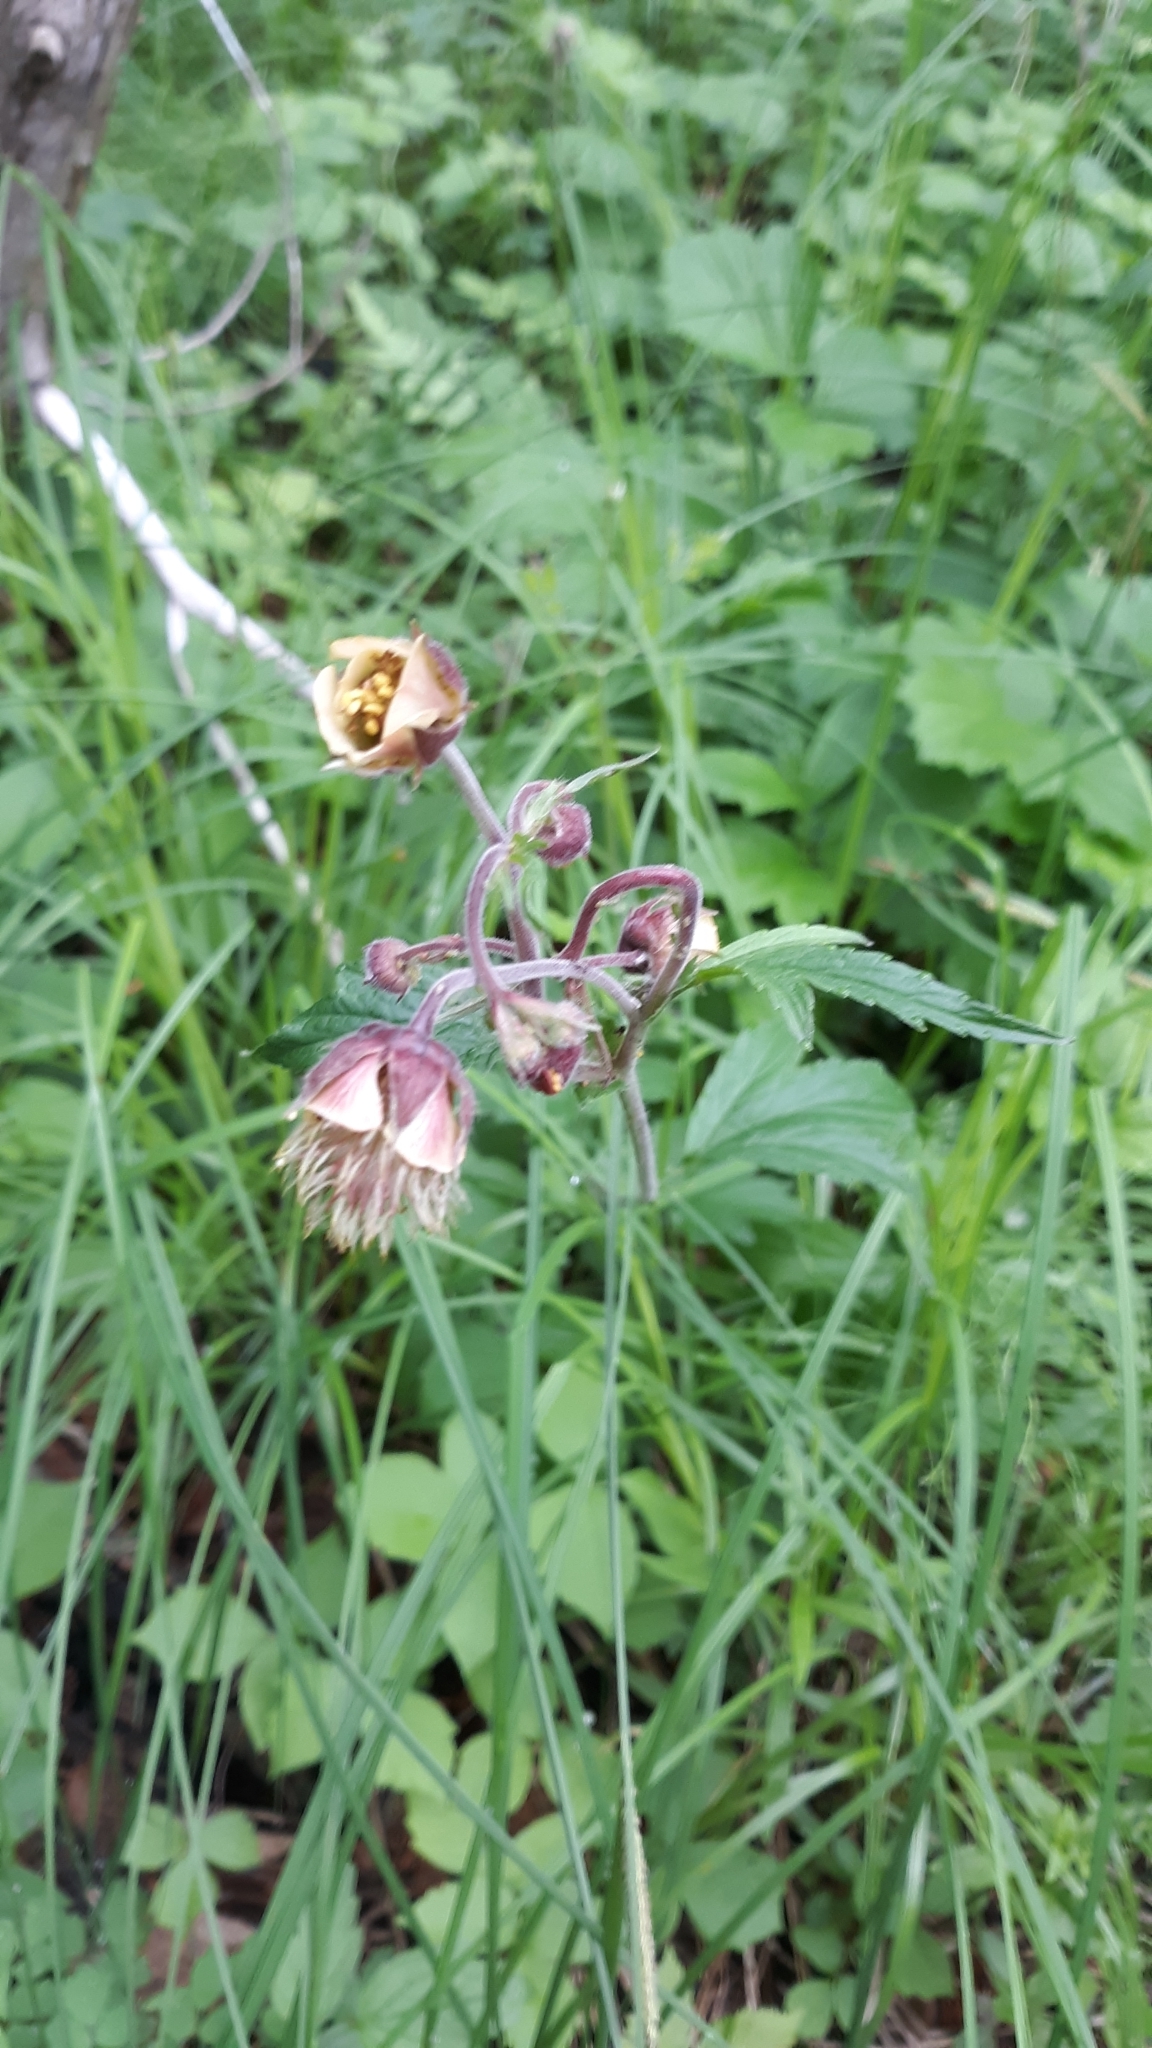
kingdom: Plantae
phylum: Tracheophyta
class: Magnoliopsida
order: Rosales
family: Rosaceae
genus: Geum
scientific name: Geum rivale
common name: Water avens
